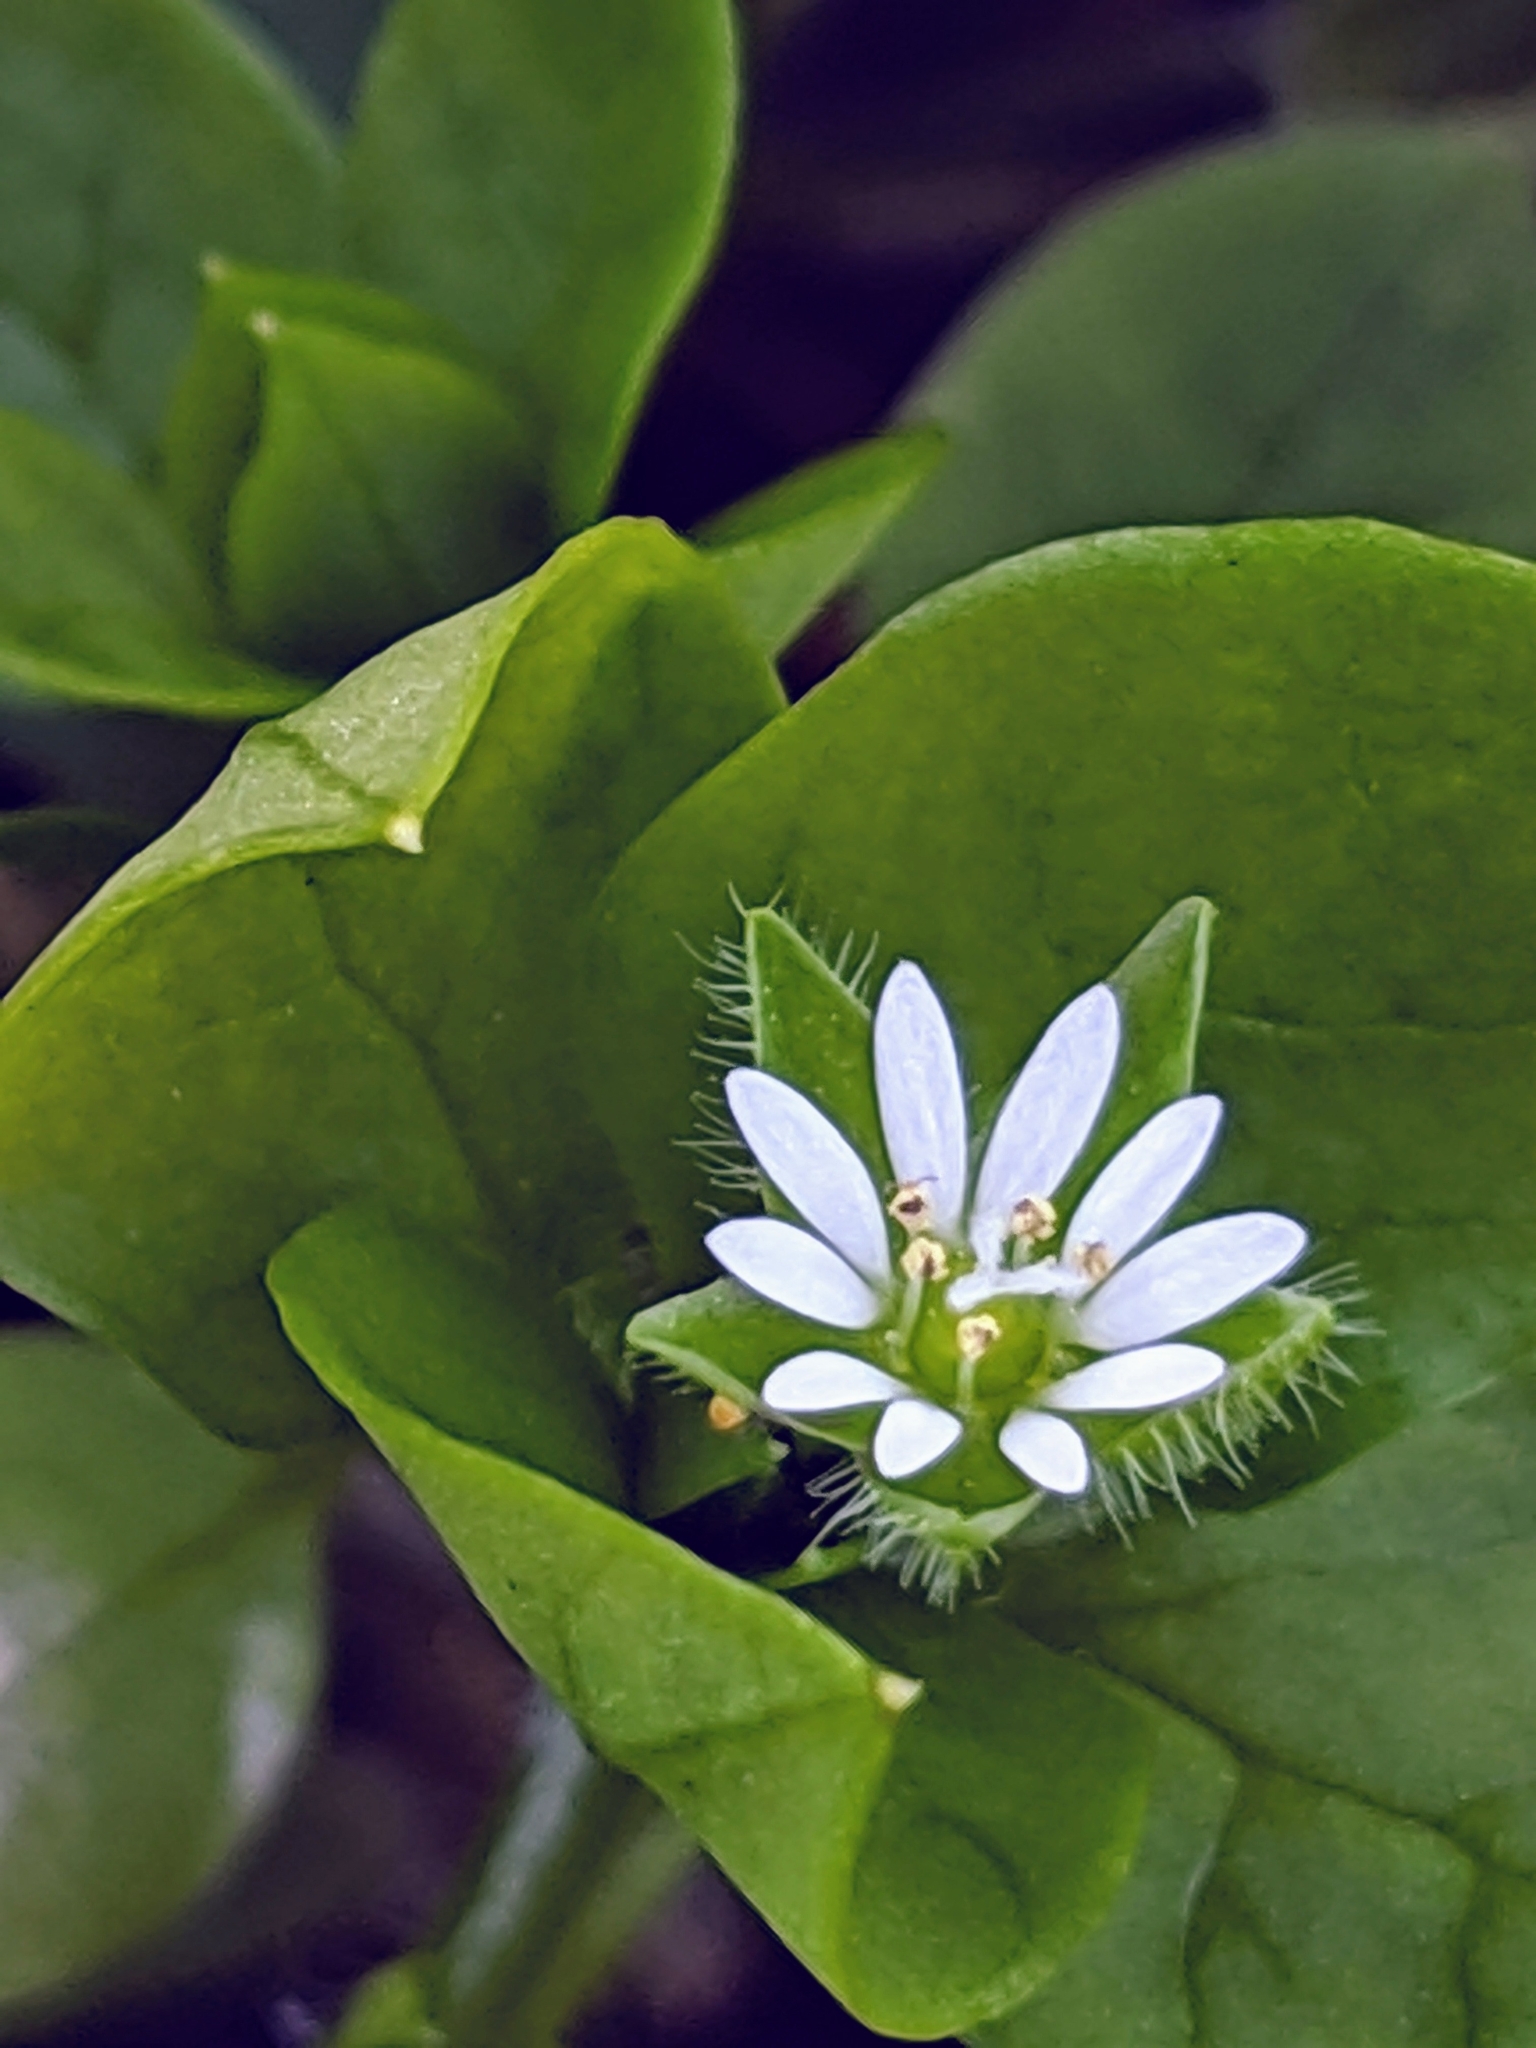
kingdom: Plantae
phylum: Tracheophyta
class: Magnoliopsida
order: Caryophyllales
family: Caryophyllaceae
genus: Stellaria
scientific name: Stellaria media
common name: Common chickweed
